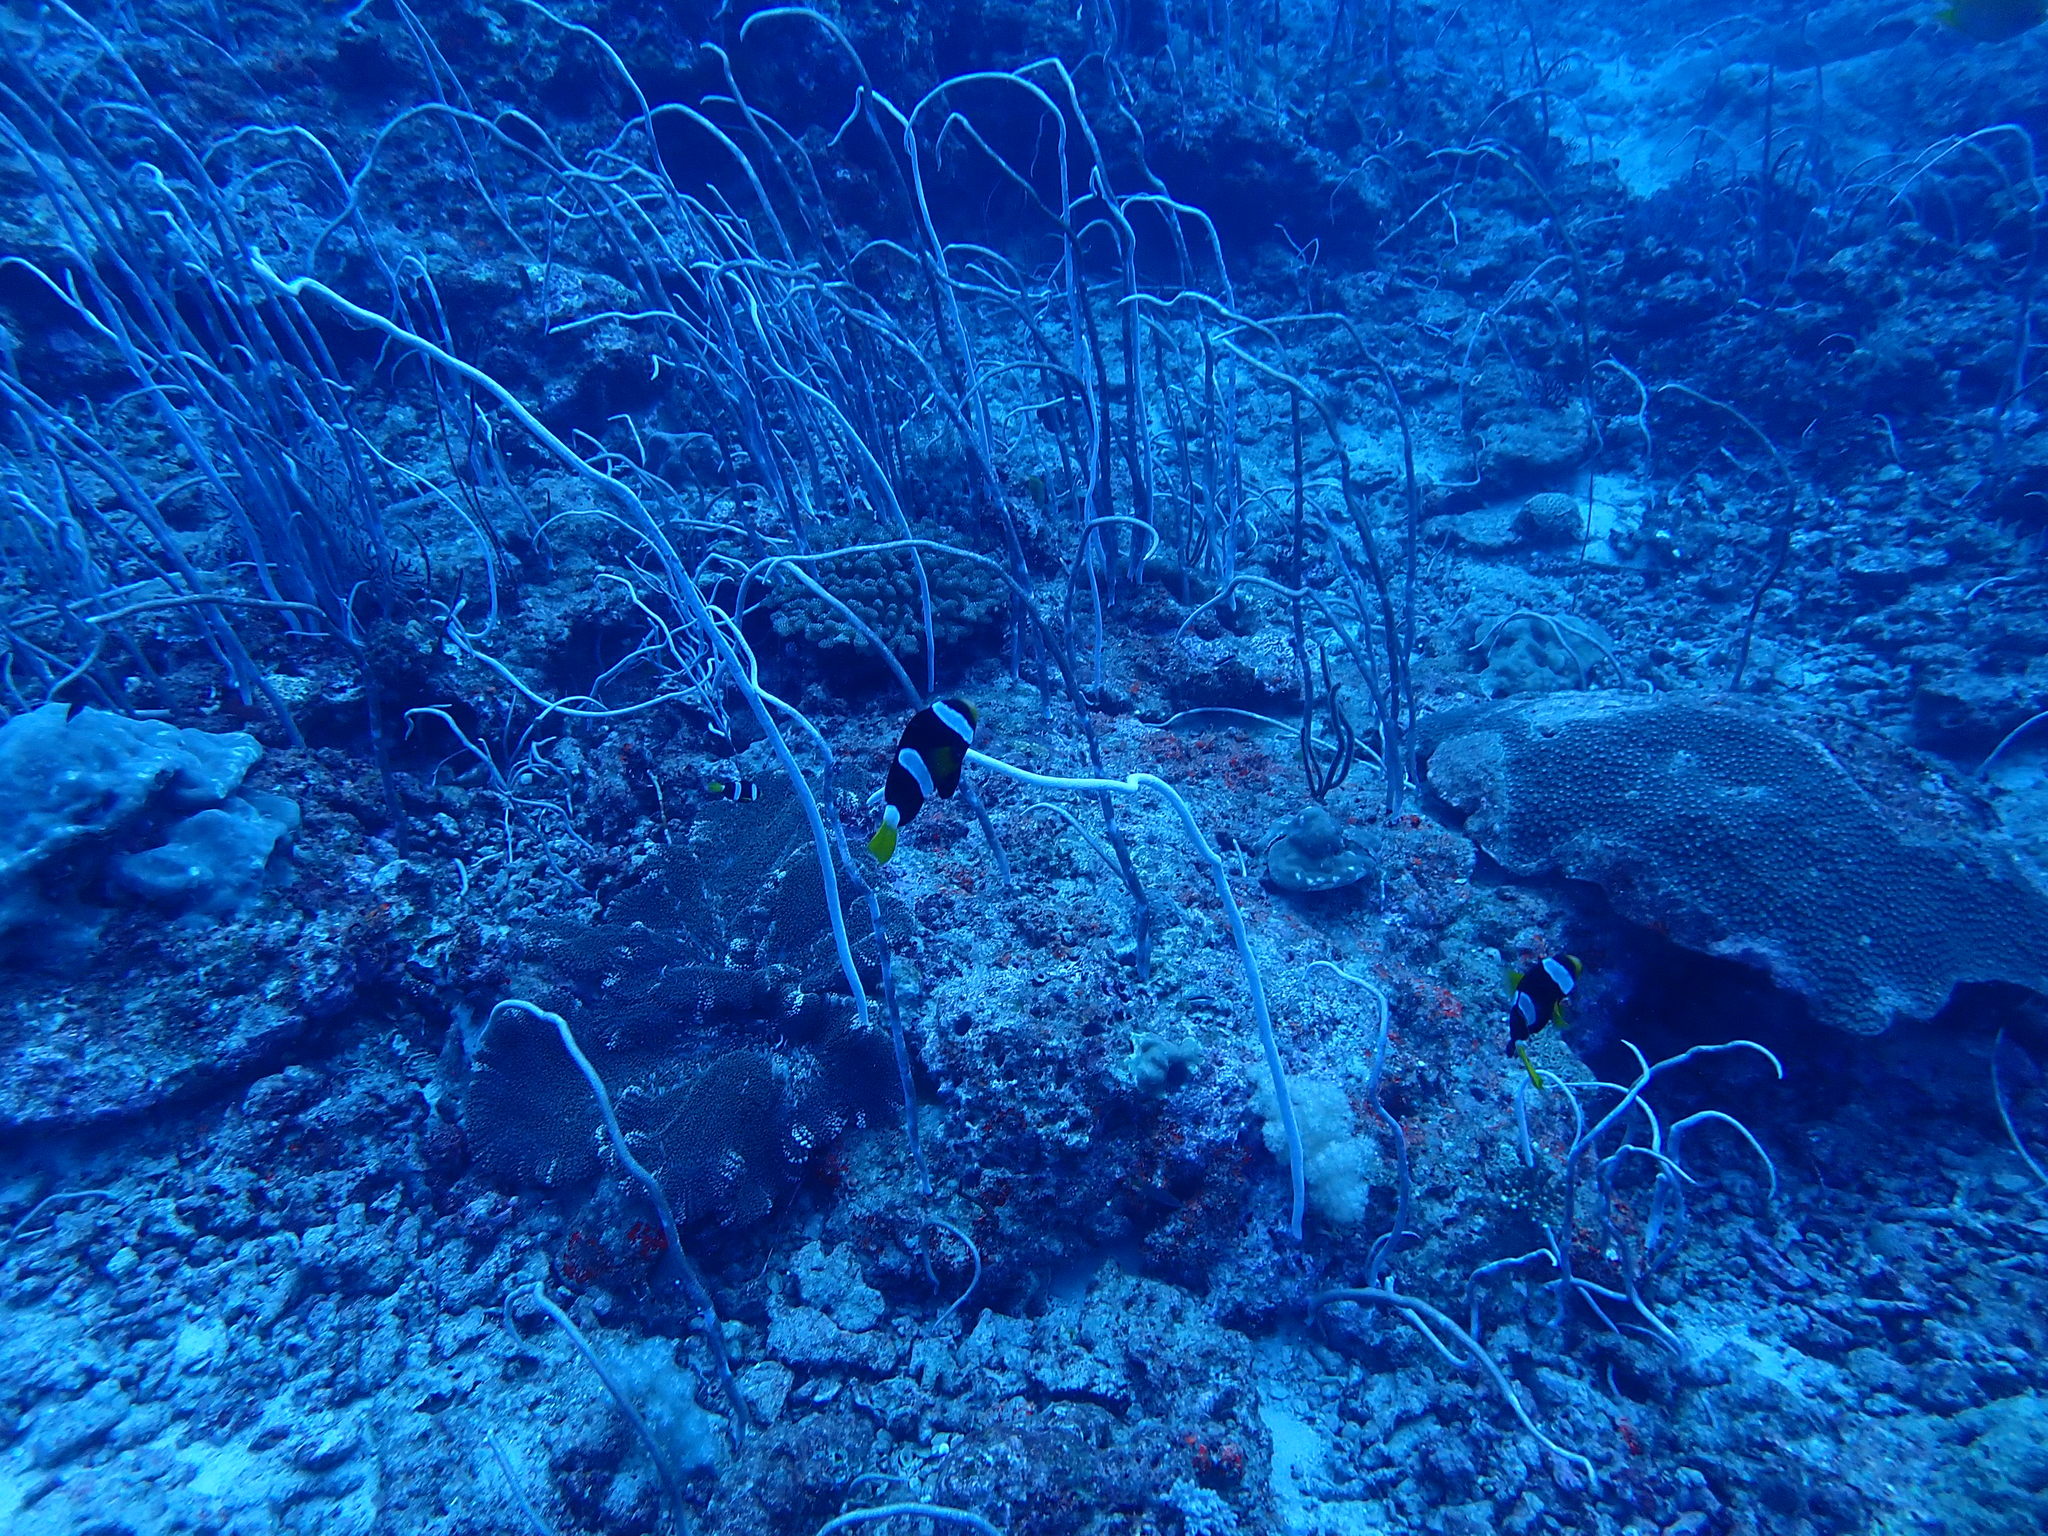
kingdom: Animalia
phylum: Chordata
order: Perciformes
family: Pomacentridae
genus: Amphiprion
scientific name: Amphiprion clarkii
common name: Clark's anemonefish
